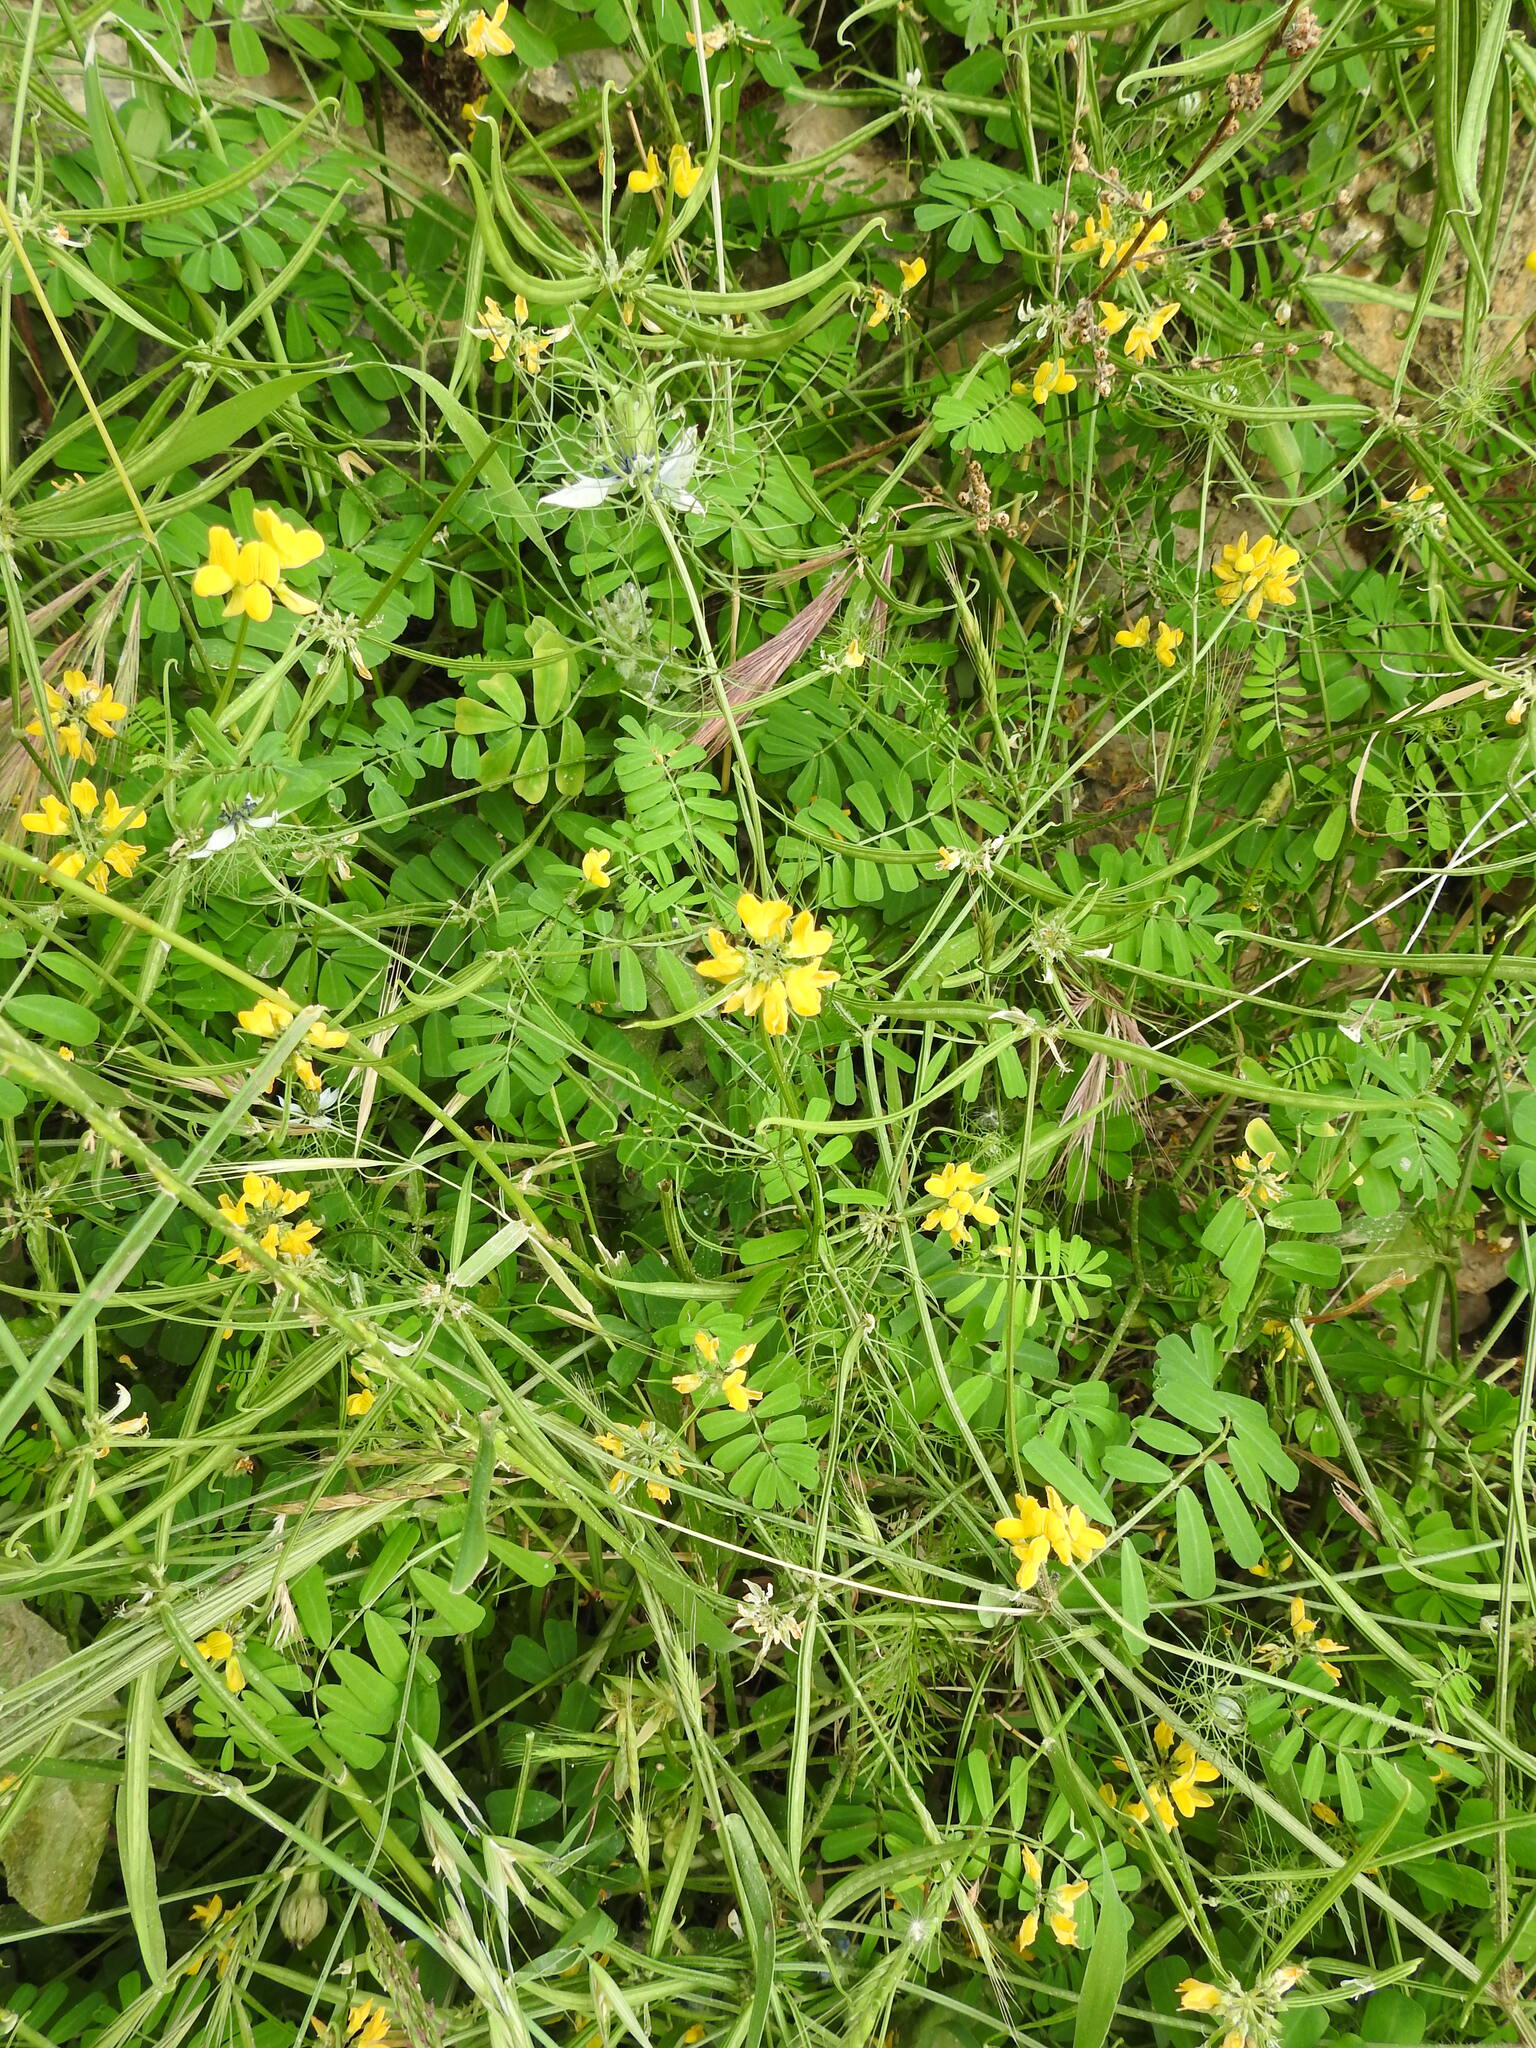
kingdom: Plantae
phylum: Tracheophyta
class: Magnoliopsida
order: Ranunculales
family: Ranunculaceae
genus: Nigella
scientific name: Nigella damascena
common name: Love-in-a-mist
